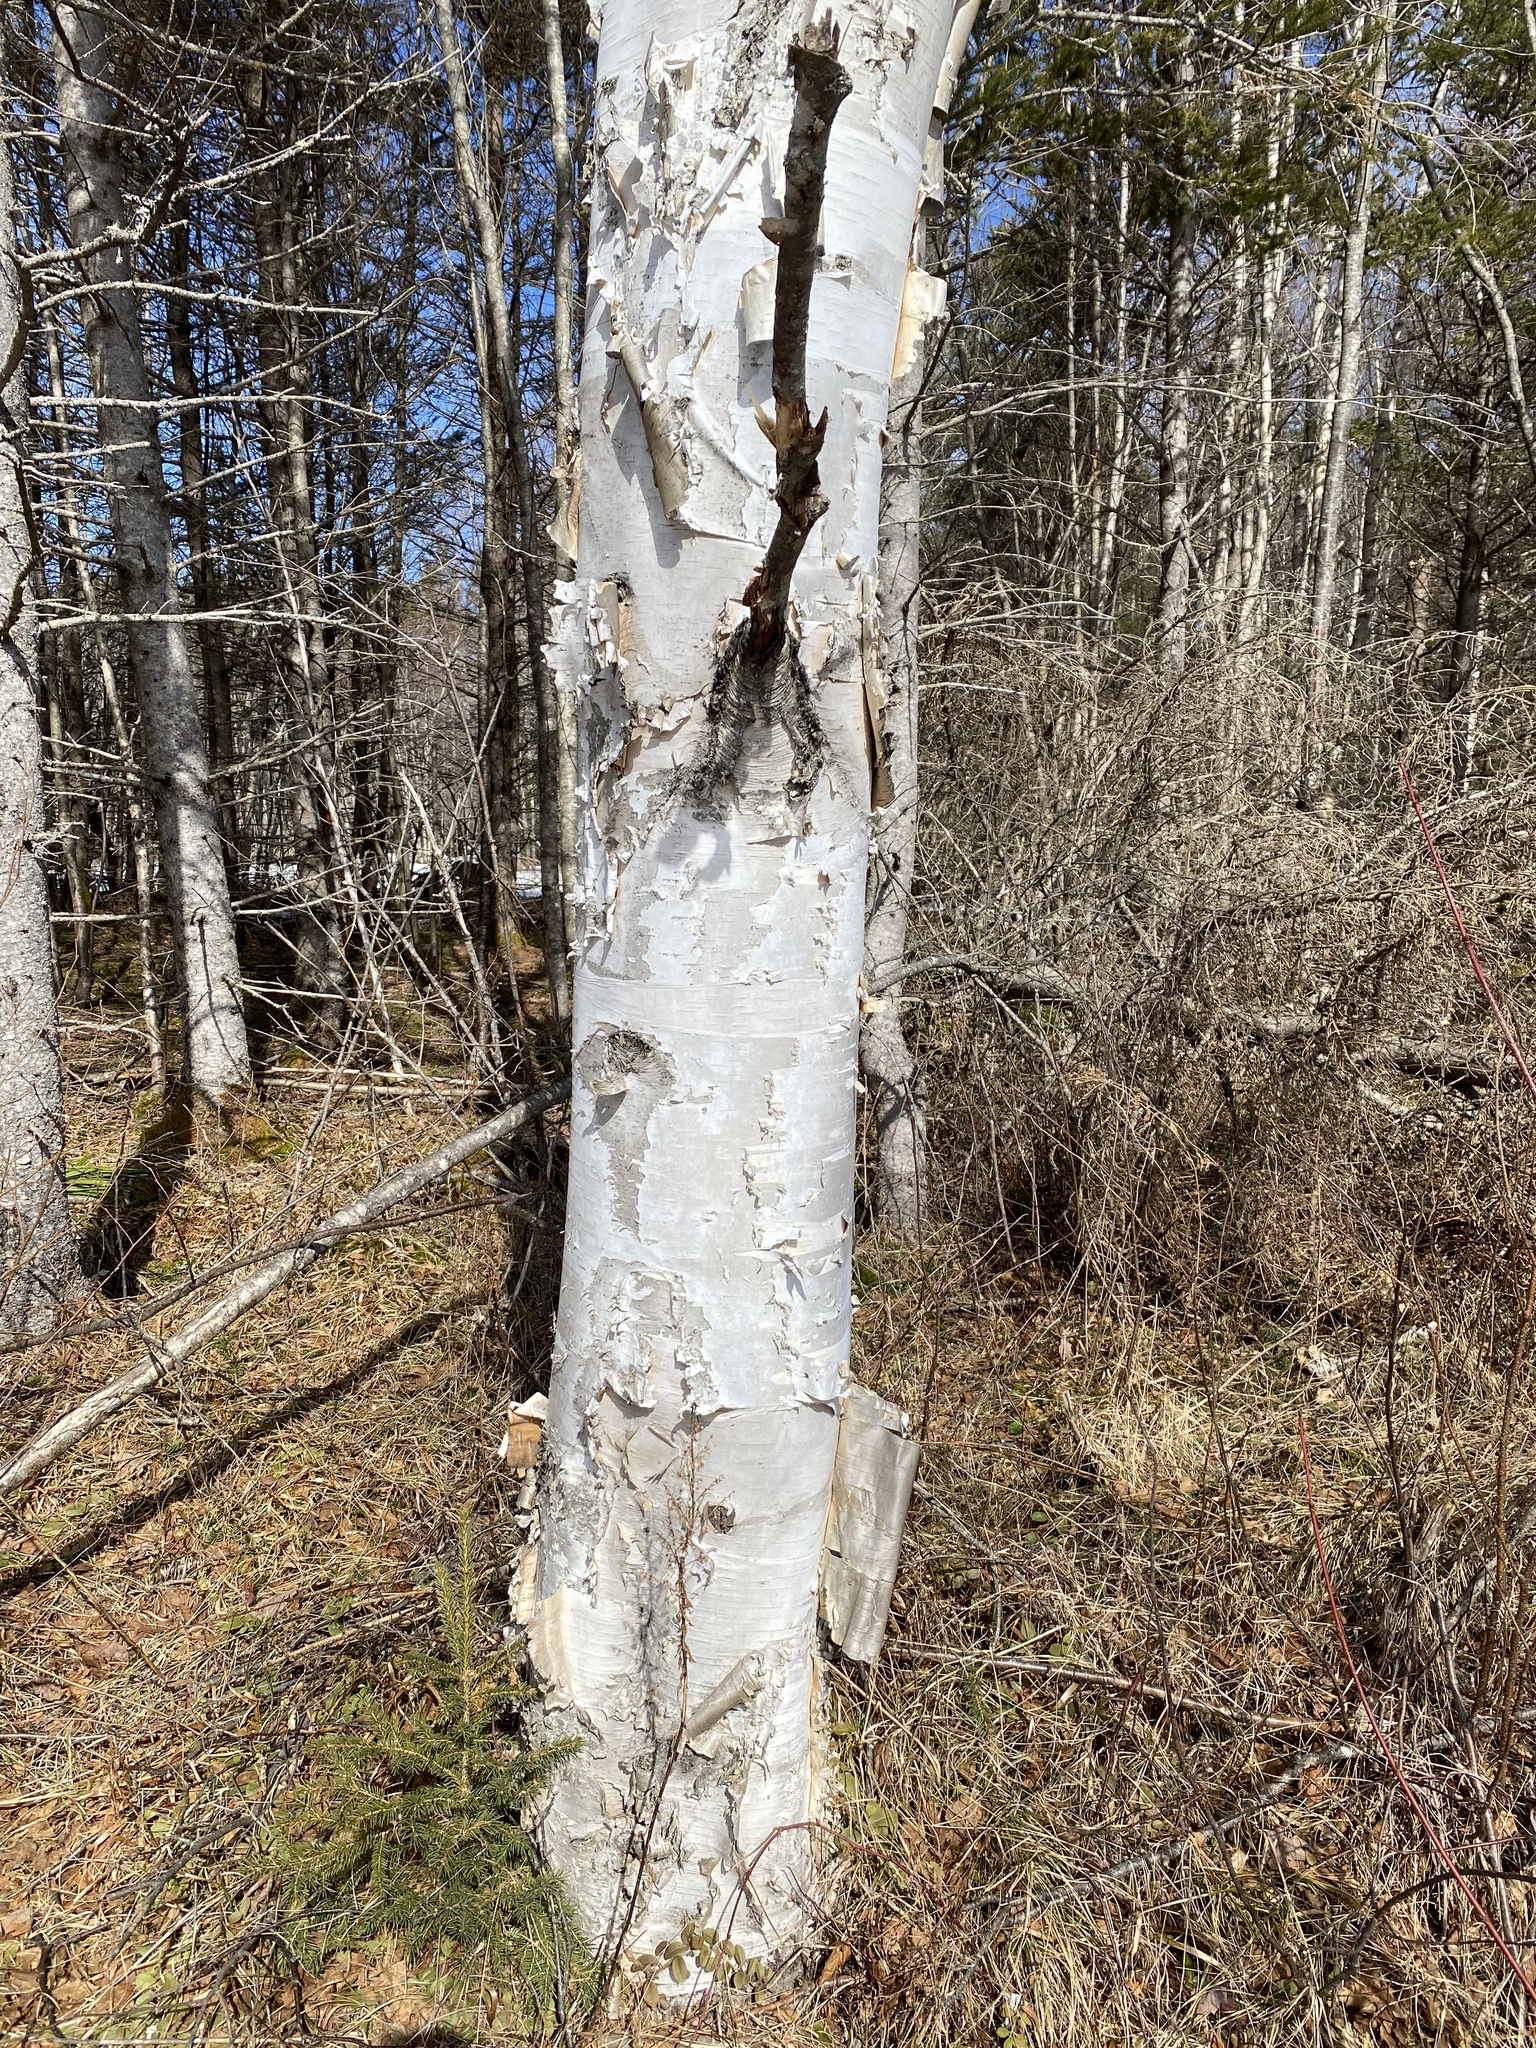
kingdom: Plantae
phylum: Tracheophyta
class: Magnoliopsida
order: Fagales
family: Betulaceae
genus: Betula
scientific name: Betula papyrifera
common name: Paper birch
